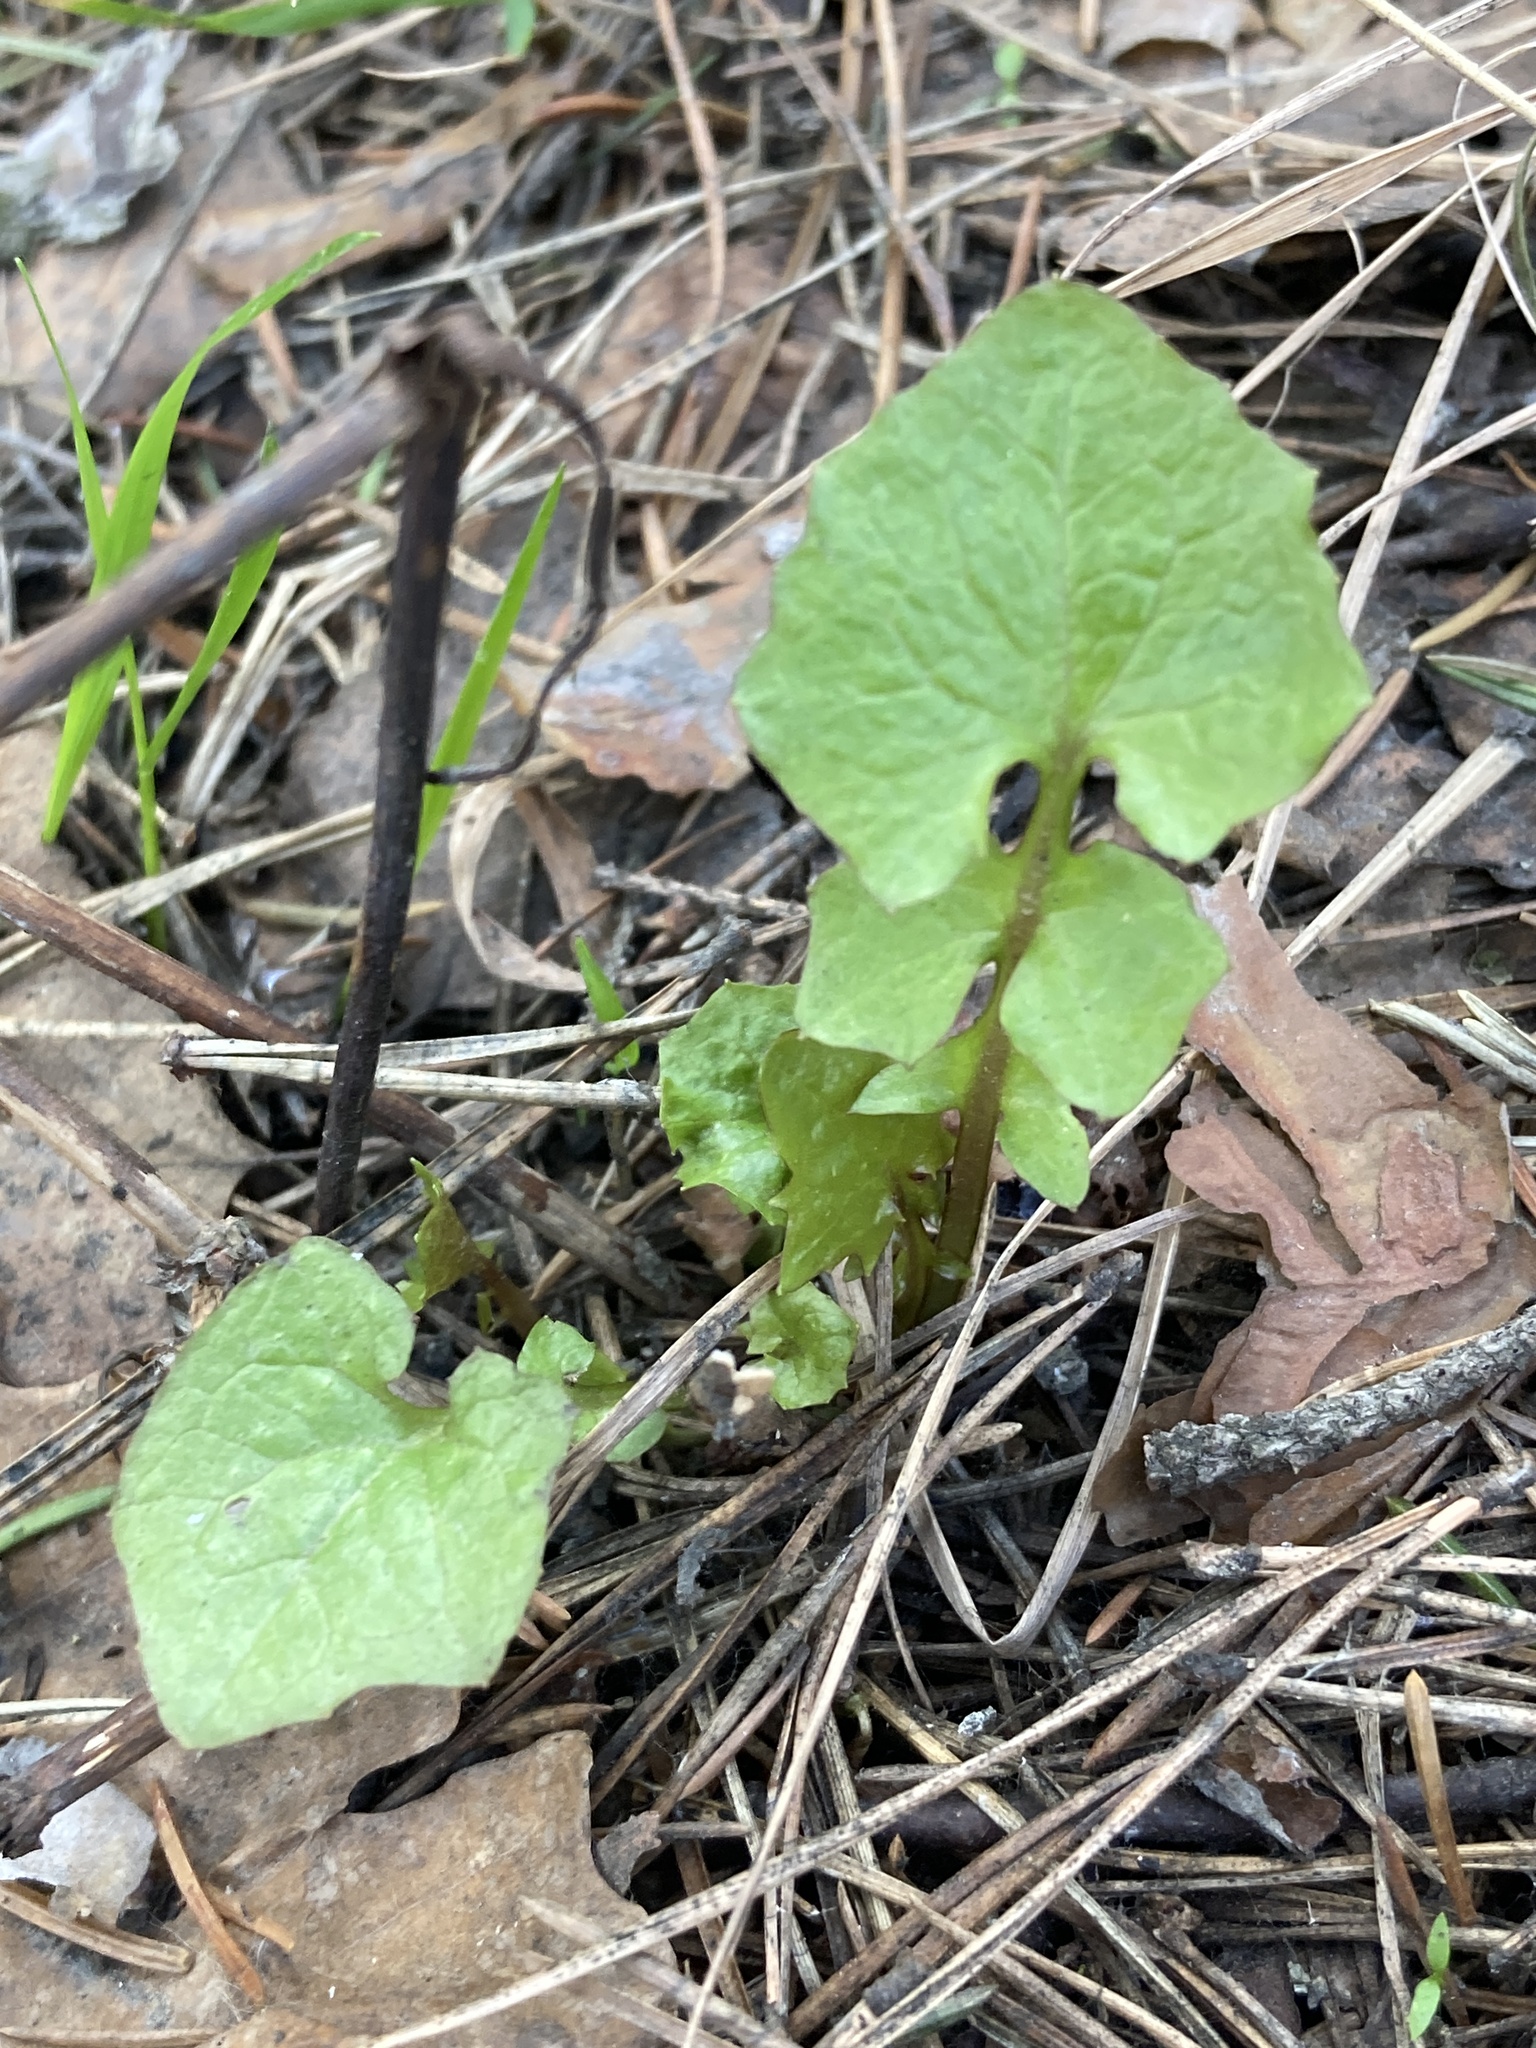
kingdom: Plantae
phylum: Tracheophyta
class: Magnoliopsida
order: Asterales
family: Asteraceae
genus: Mycelis
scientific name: Mycelis muralis
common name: Wall lettuce
